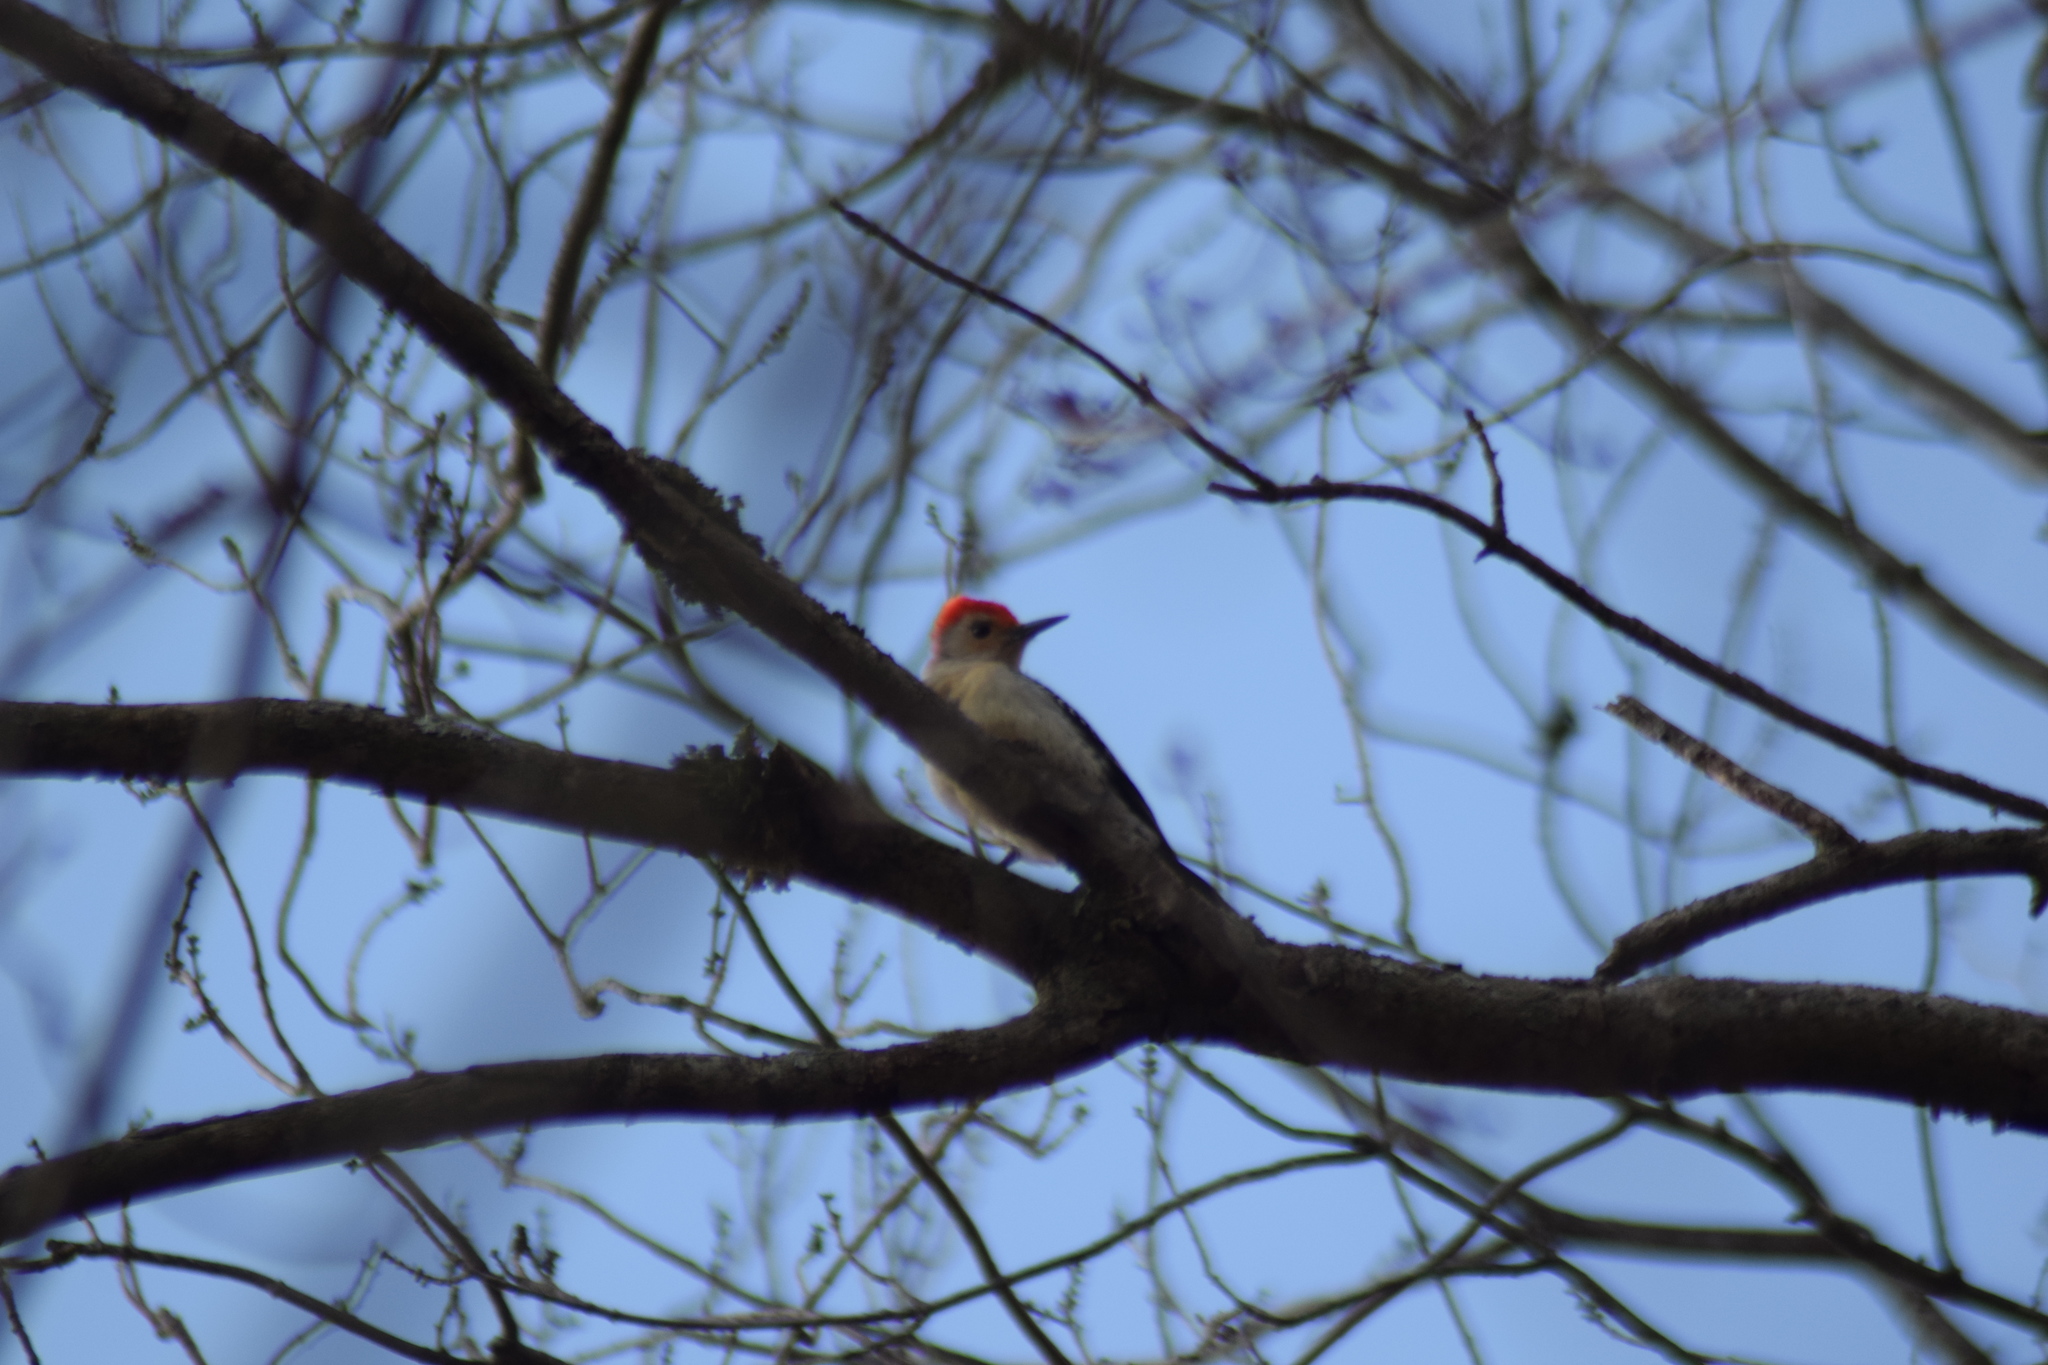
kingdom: Animalia
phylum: Chordata
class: Aves
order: Piciformes
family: Picidae
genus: Melanerpes
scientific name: Melanerpes carolinus
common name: Red-bellied woodpecker
